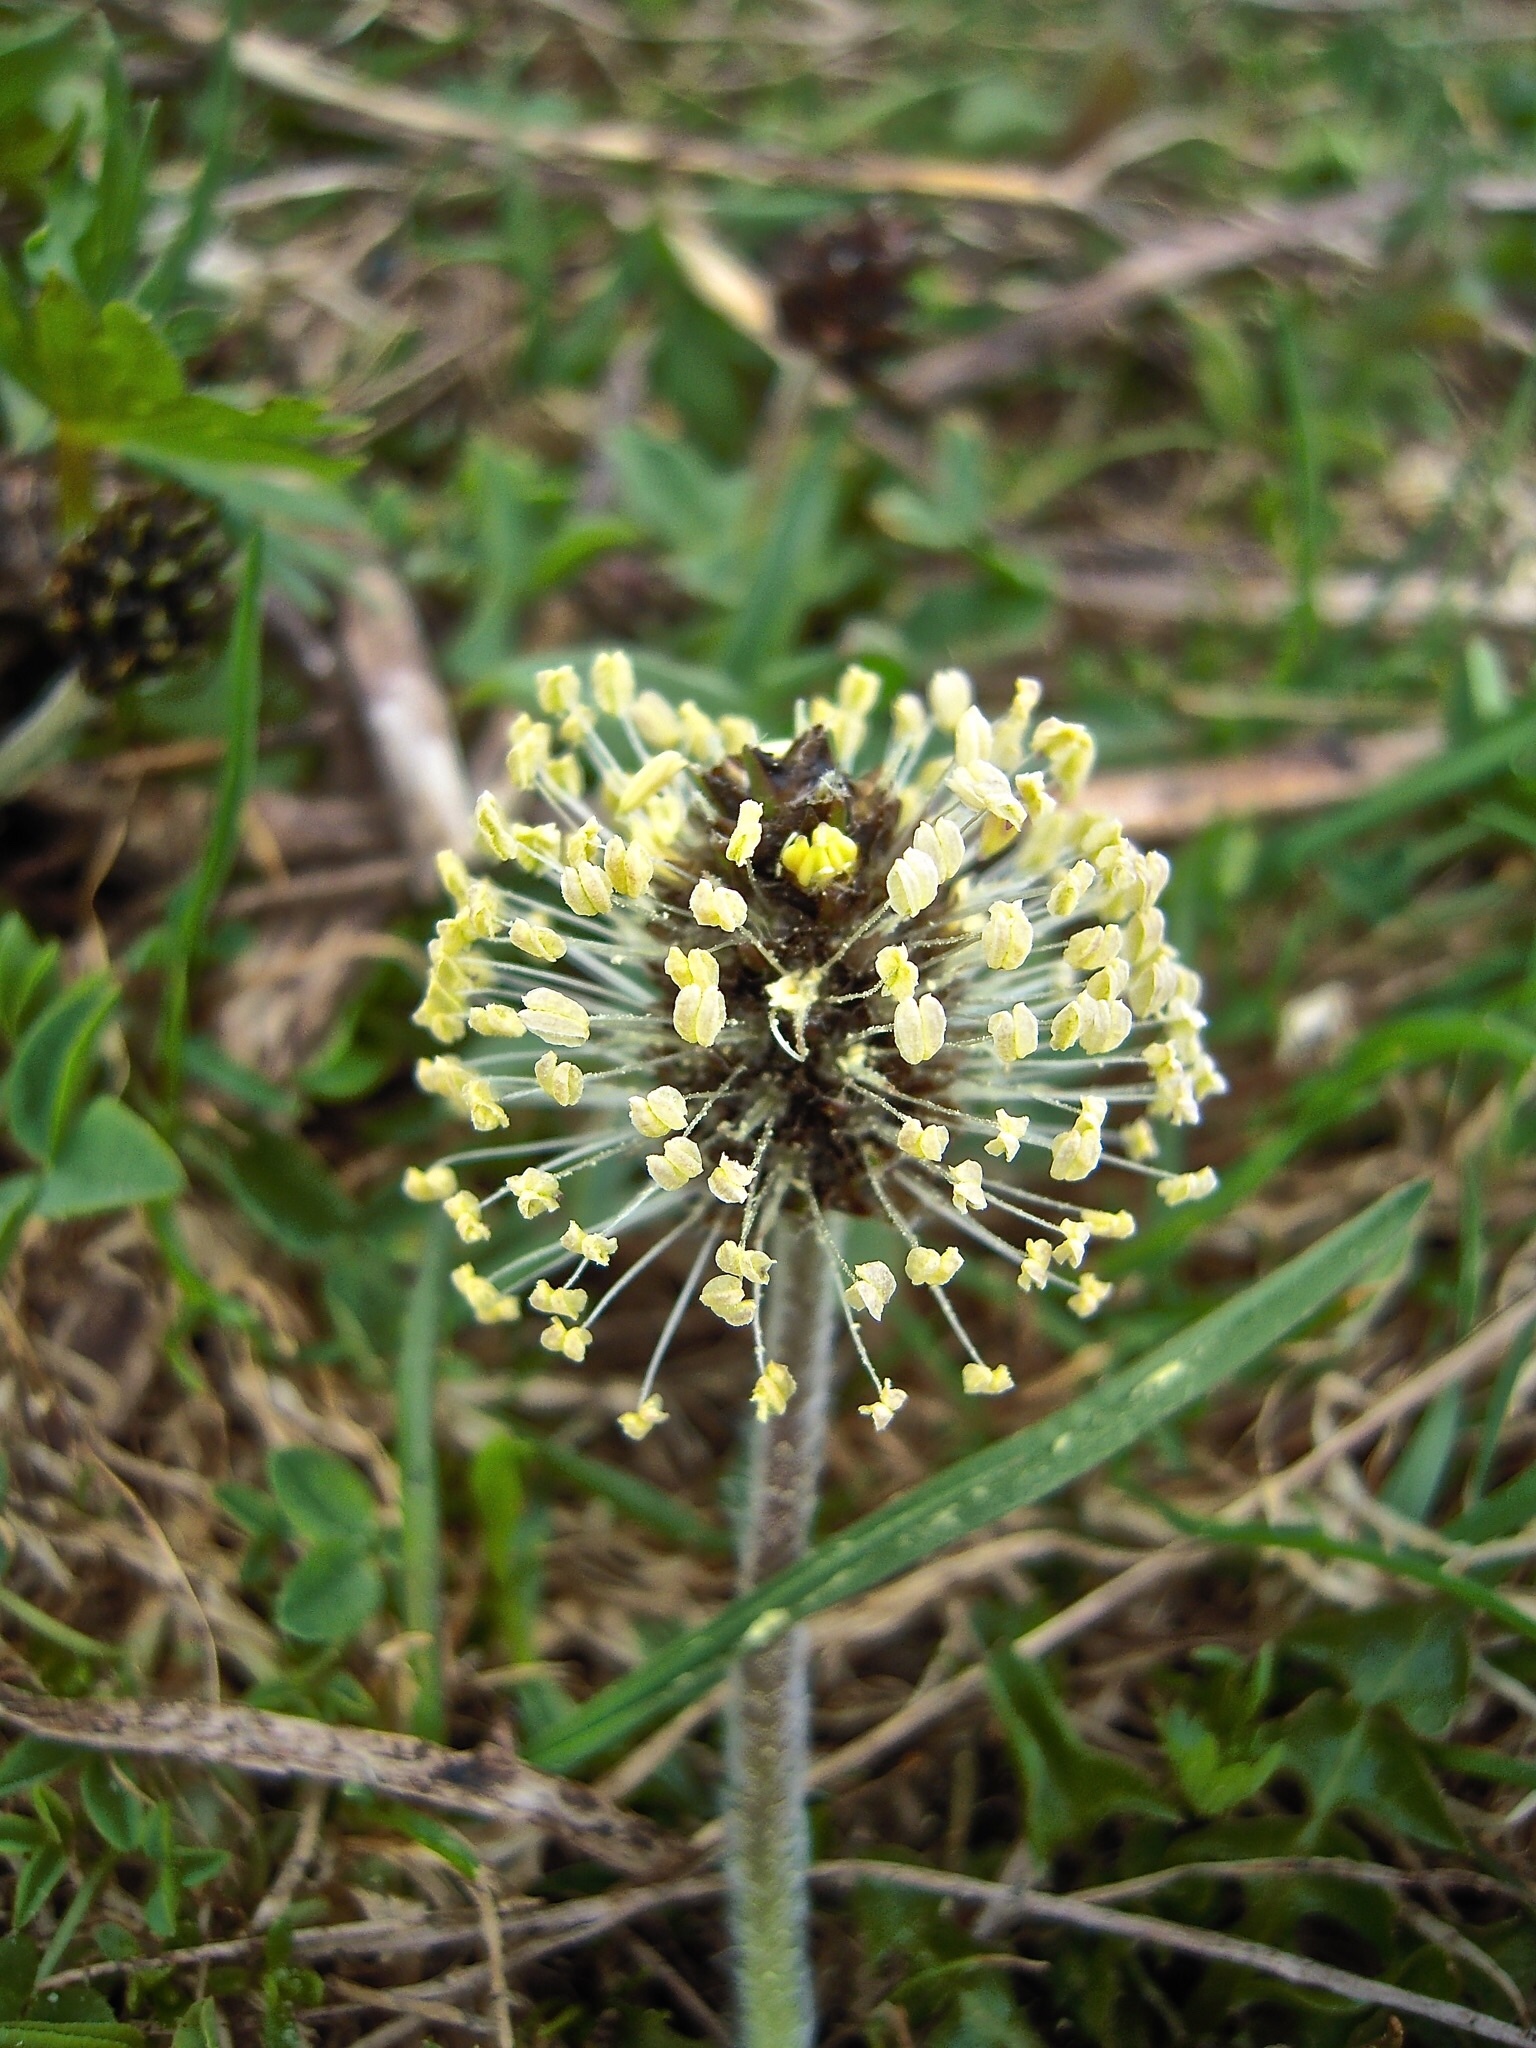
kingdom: Plantae
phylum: Tracheophyta
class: Magnoliopsida
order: Lamiales
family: Plantaginaceae
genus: Plantago
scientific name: Plantago atrata
